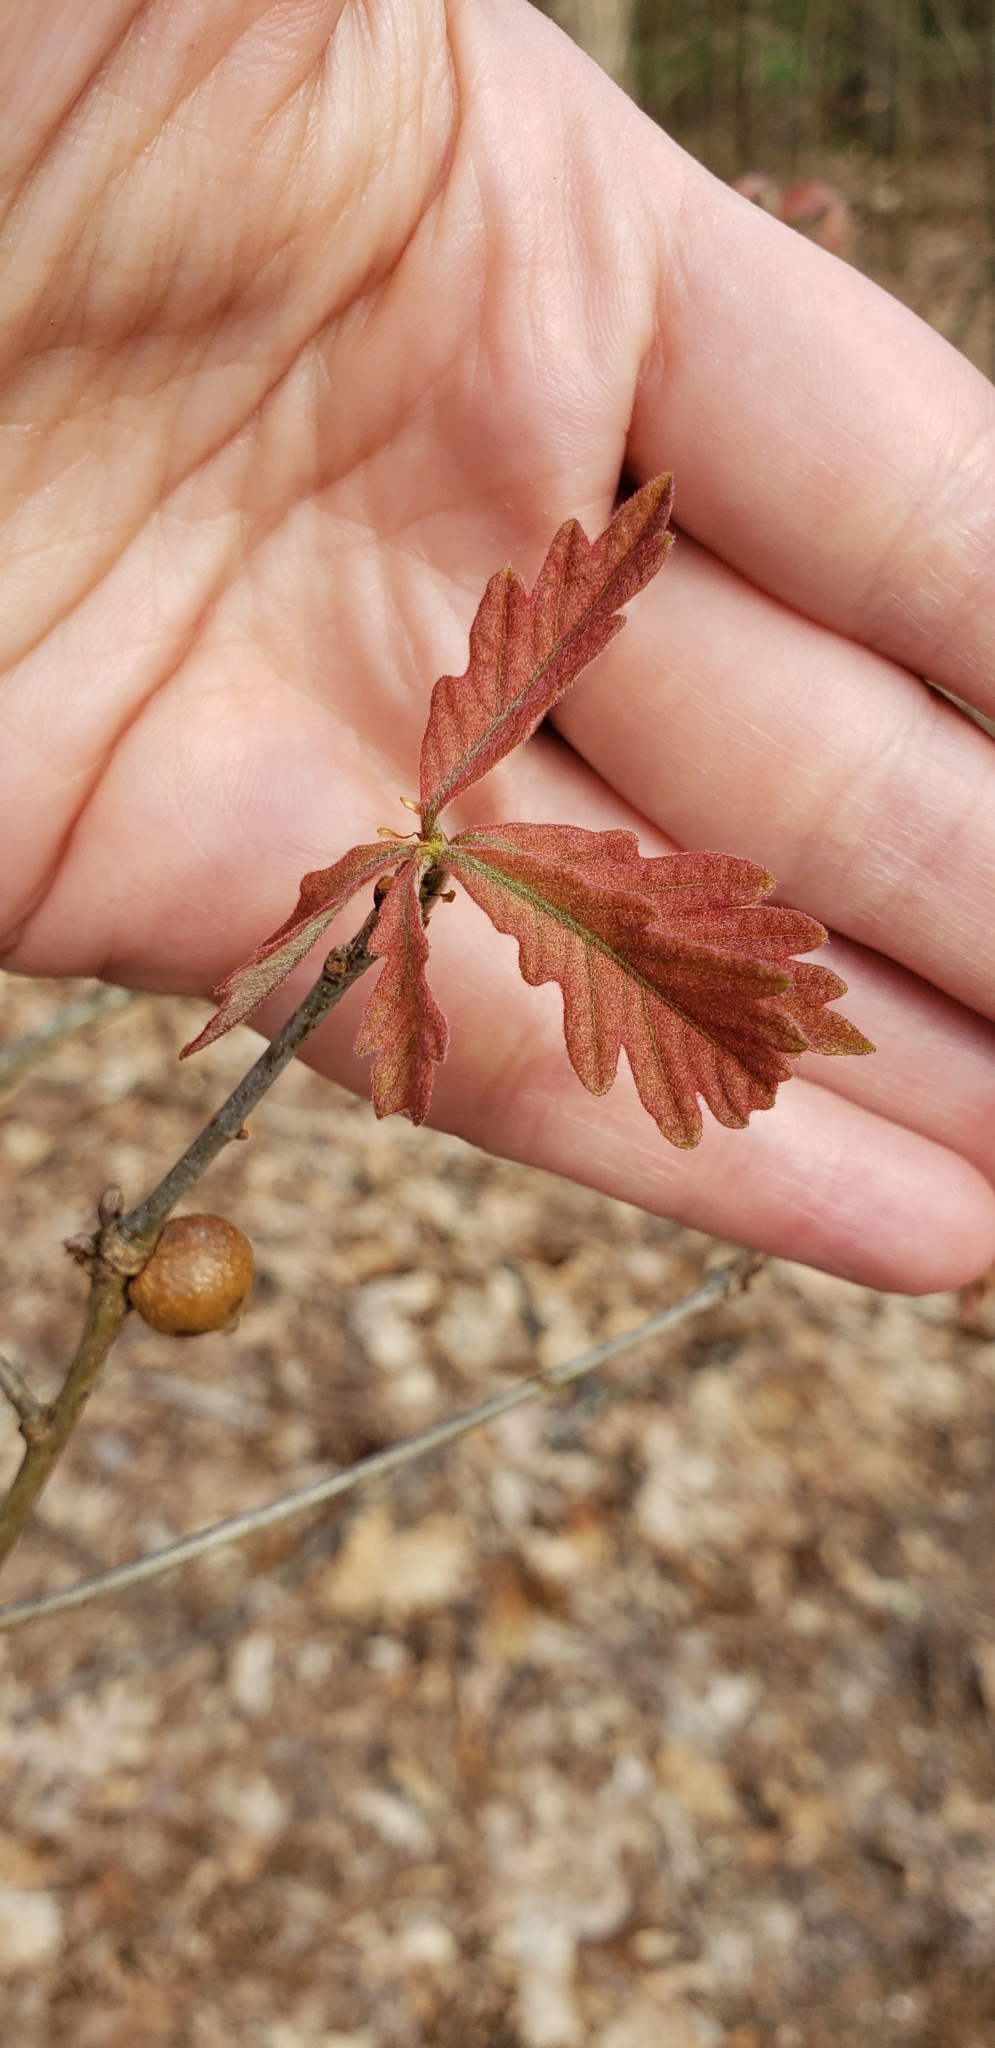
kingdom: Animalia
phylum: Arthropoda
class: Insecta
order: Hymenoptera
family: Cynipidae
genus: Disholcaspis
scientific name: Disholcaspis quercusglobulus
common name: Round bullet gall wasp
